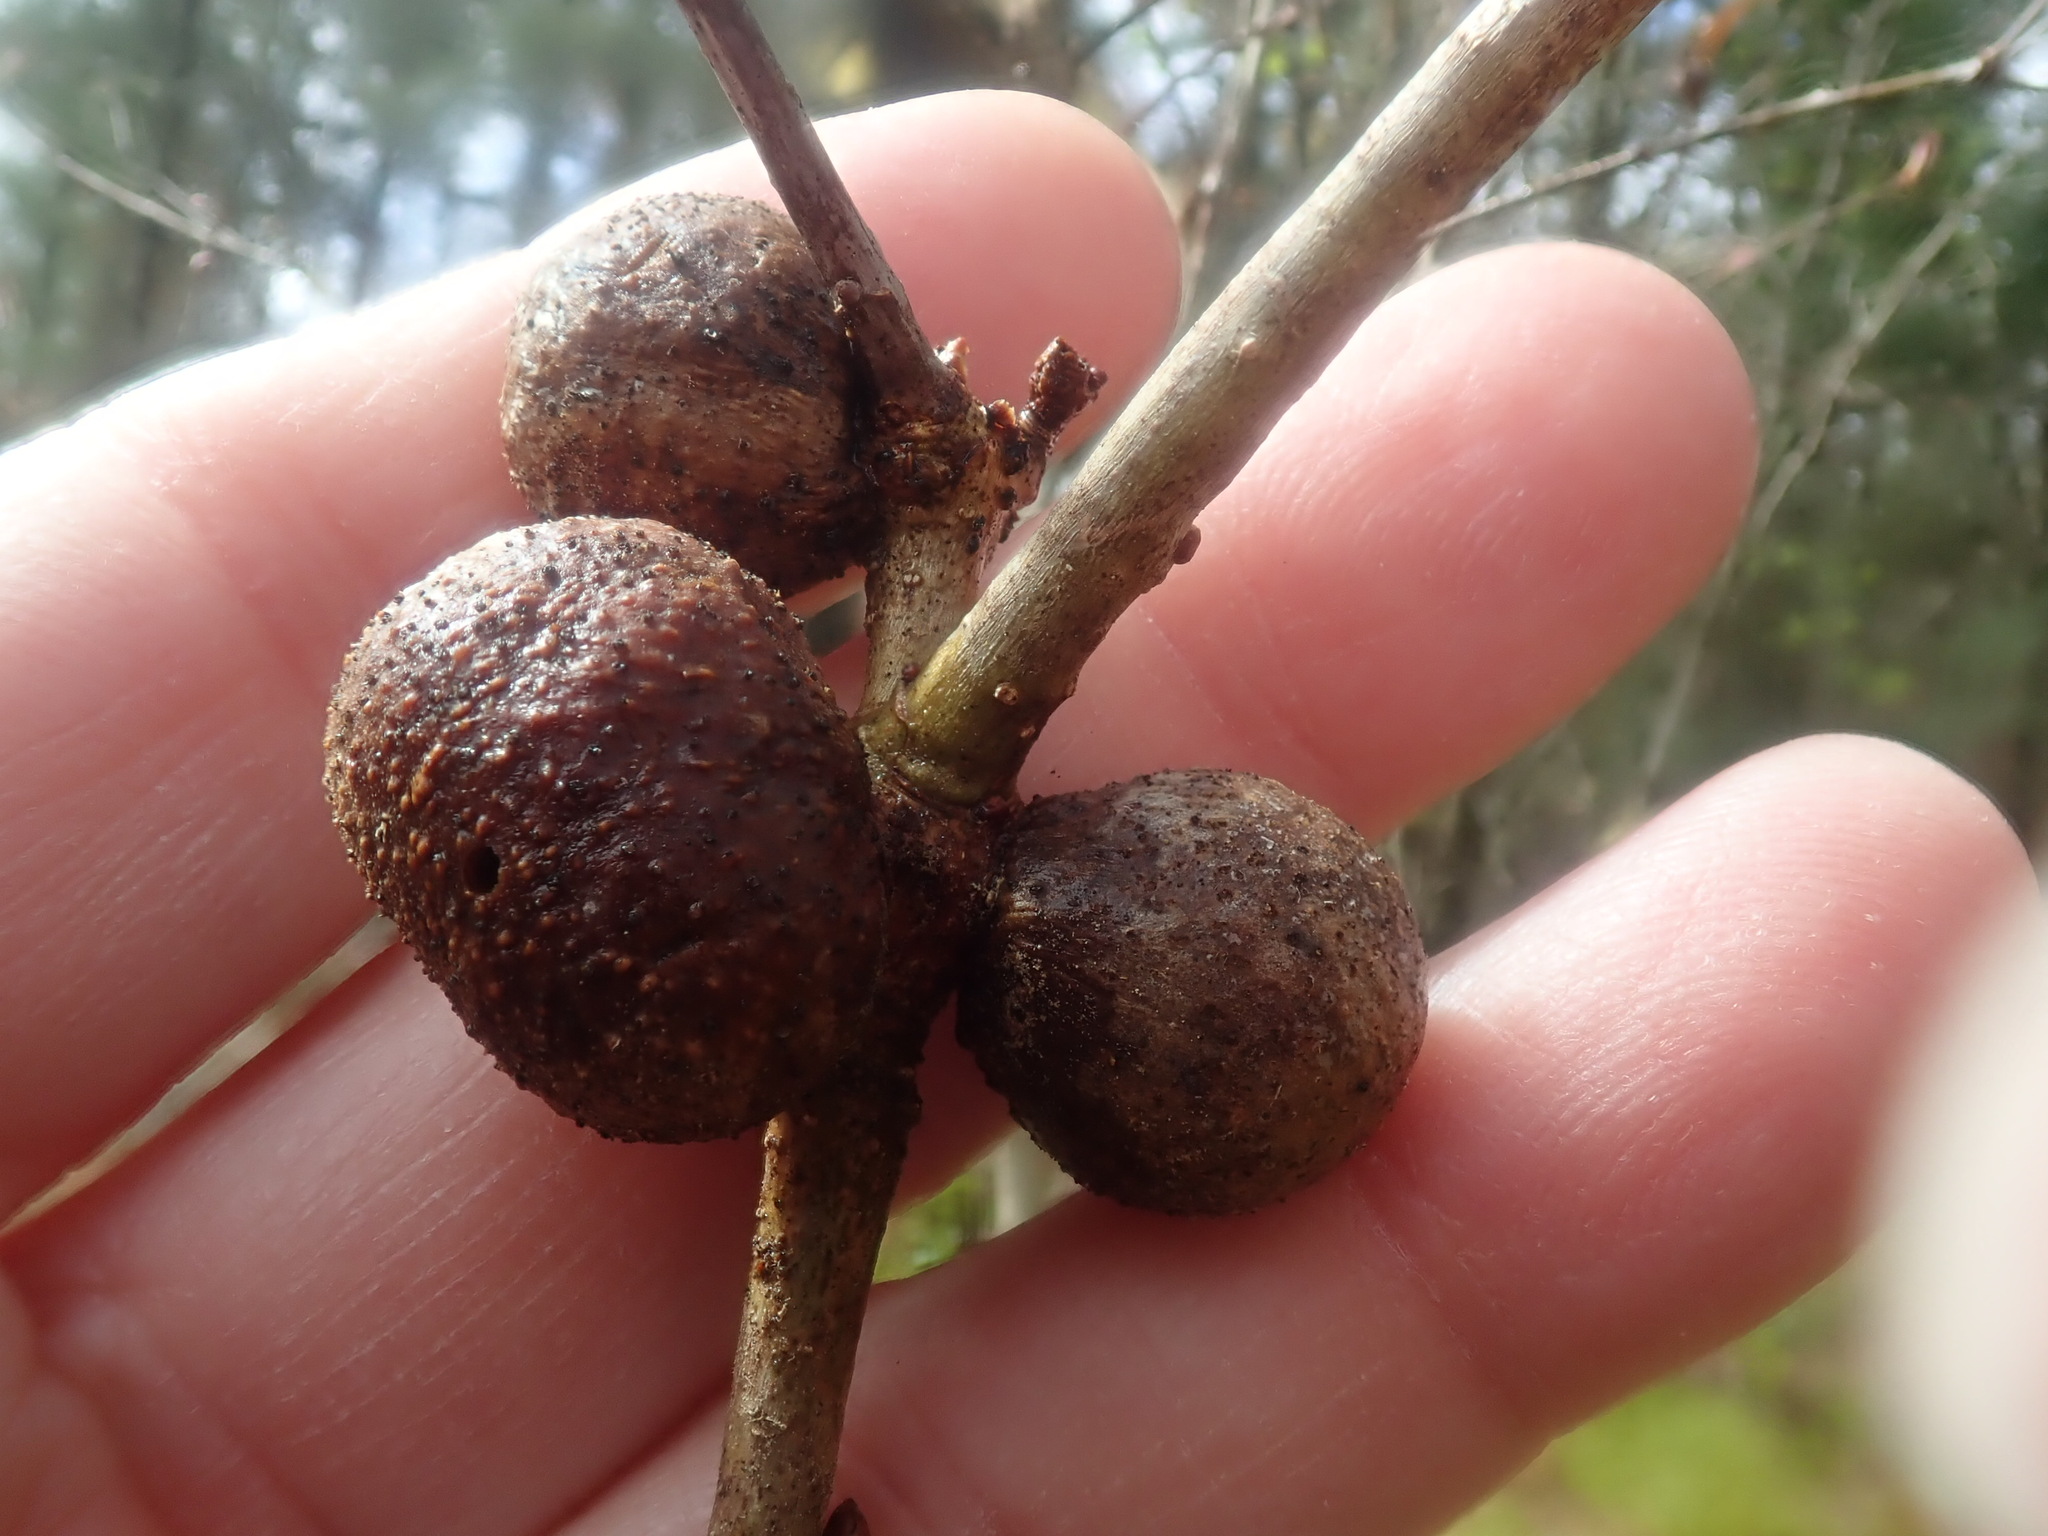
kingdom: Animalia
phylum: Arthropoda
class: Insecta
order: Hymenoptera
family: Cynipidae
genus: Disholcaspis
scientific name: Disholcaspis quercusglobulus
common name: Round bullet gall wasp
